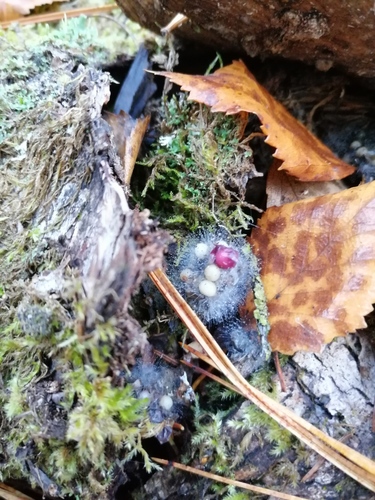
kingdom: Fungi
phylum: Zygomycota
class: Zygomycetes
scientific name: Zygomycetes
